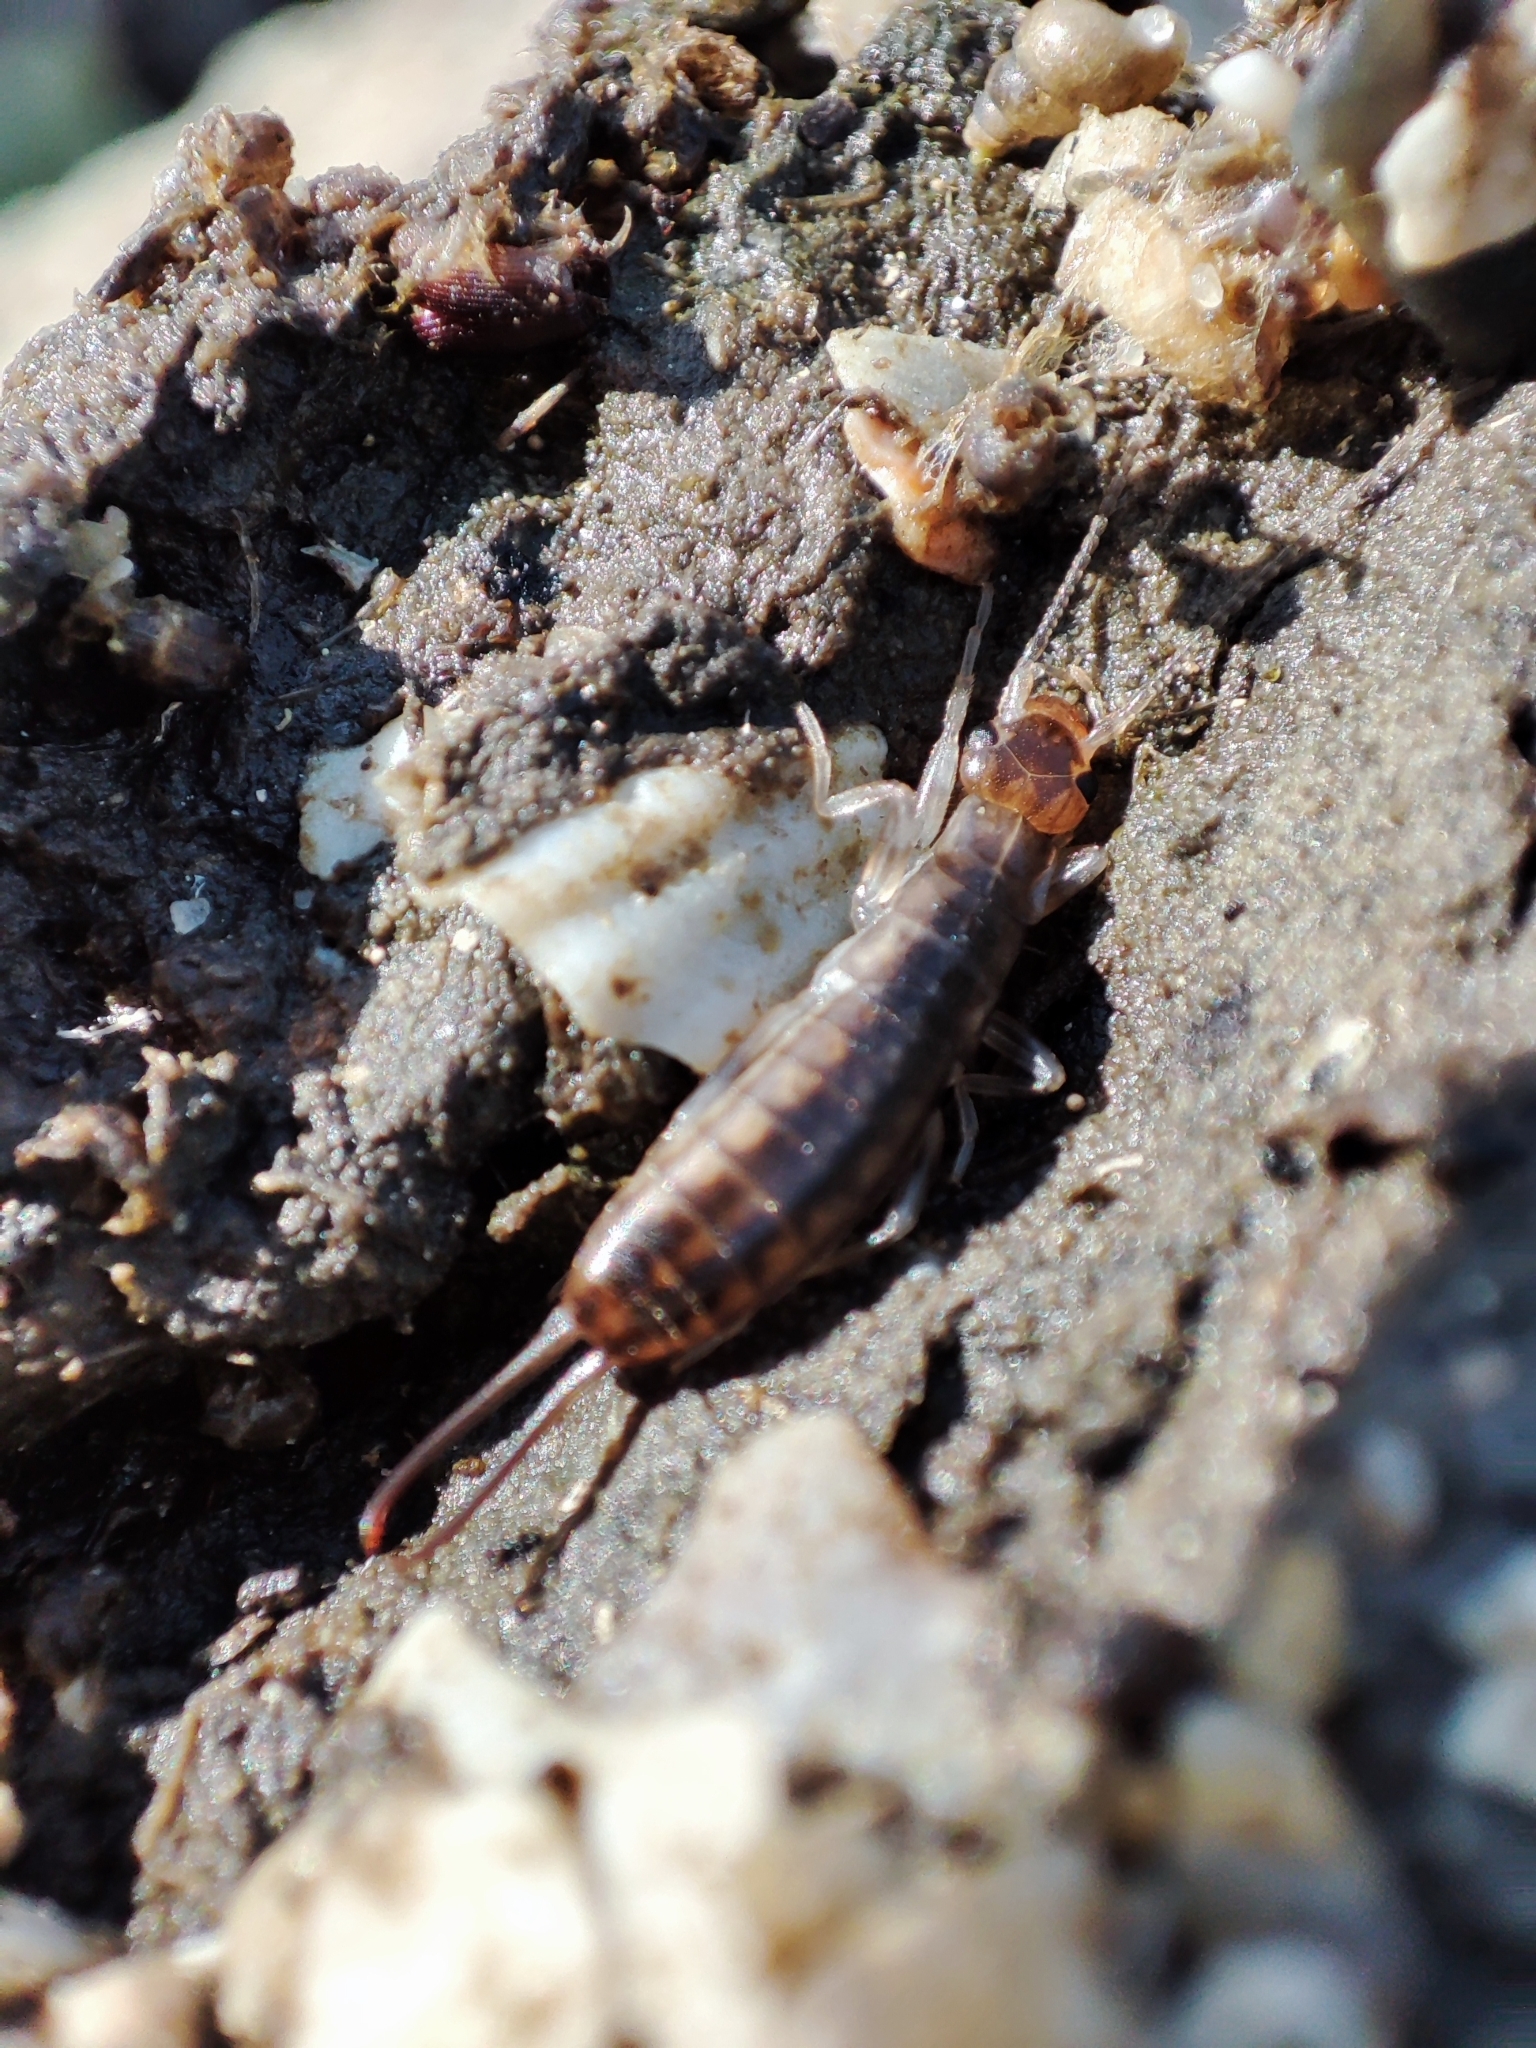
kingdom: Animalia
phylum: Arthropoda
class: Insecta
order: Dermaptera
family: Labiduridae
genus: Labidura
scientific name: Labidura riparia
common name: Striped earwig
